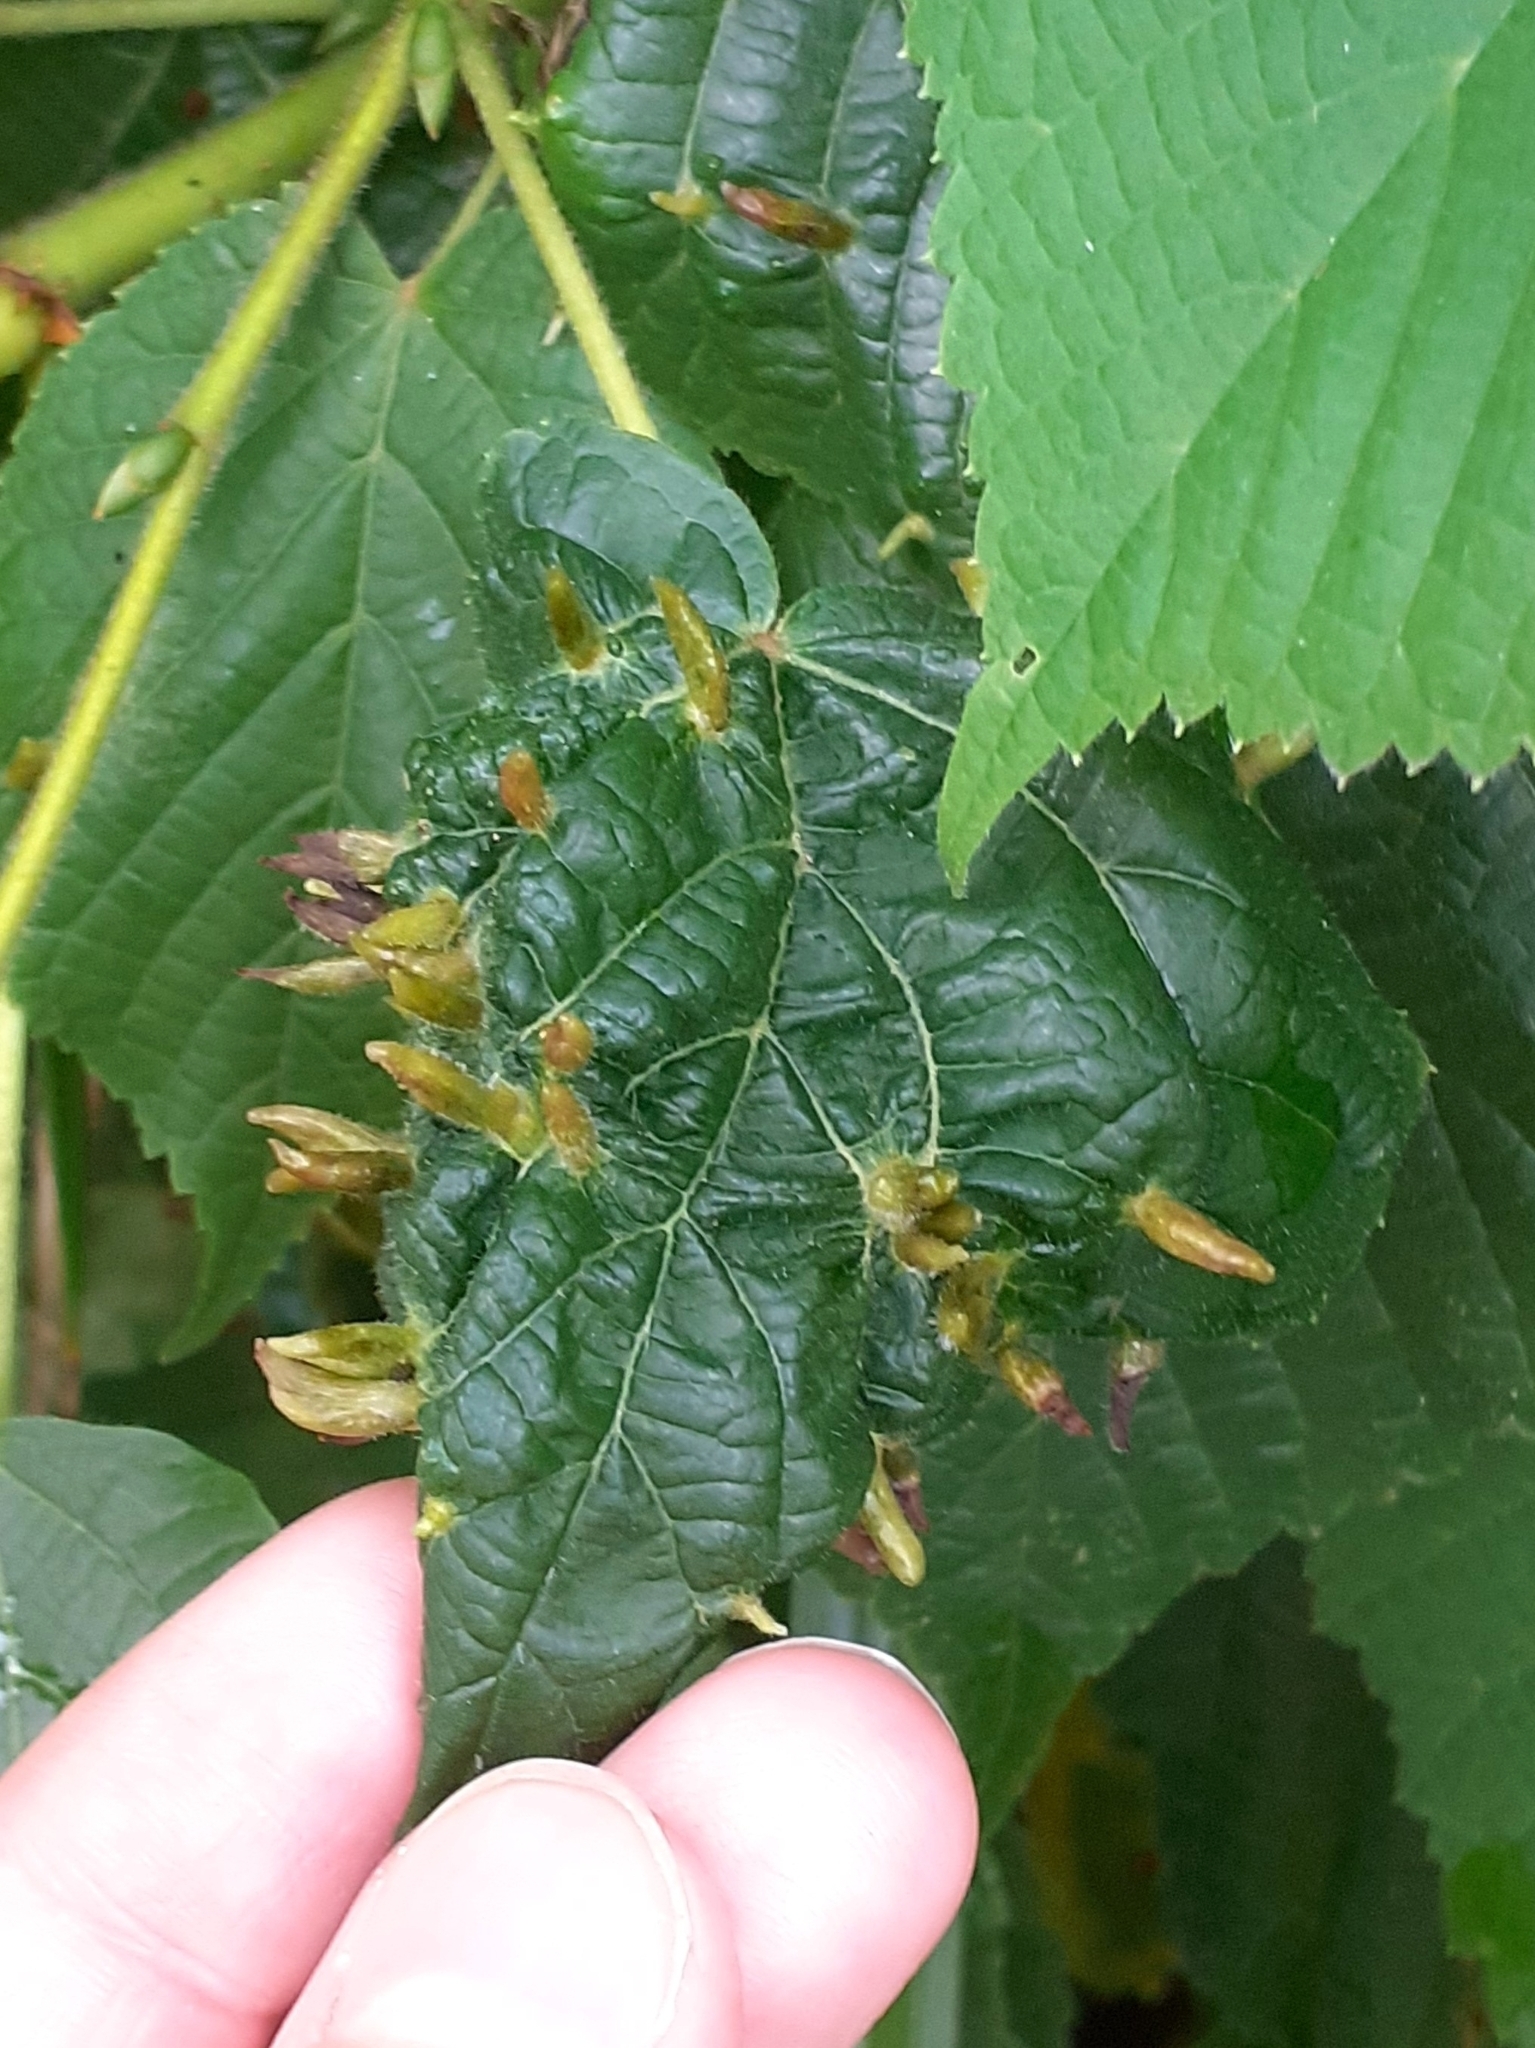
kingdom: Animalia
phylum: Arthropoda
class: Arachnida
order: Trombidiformes
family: Eriophyidae
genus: Eriophyes
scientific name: Eriophyes tiliae
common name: Red nail gall mite
